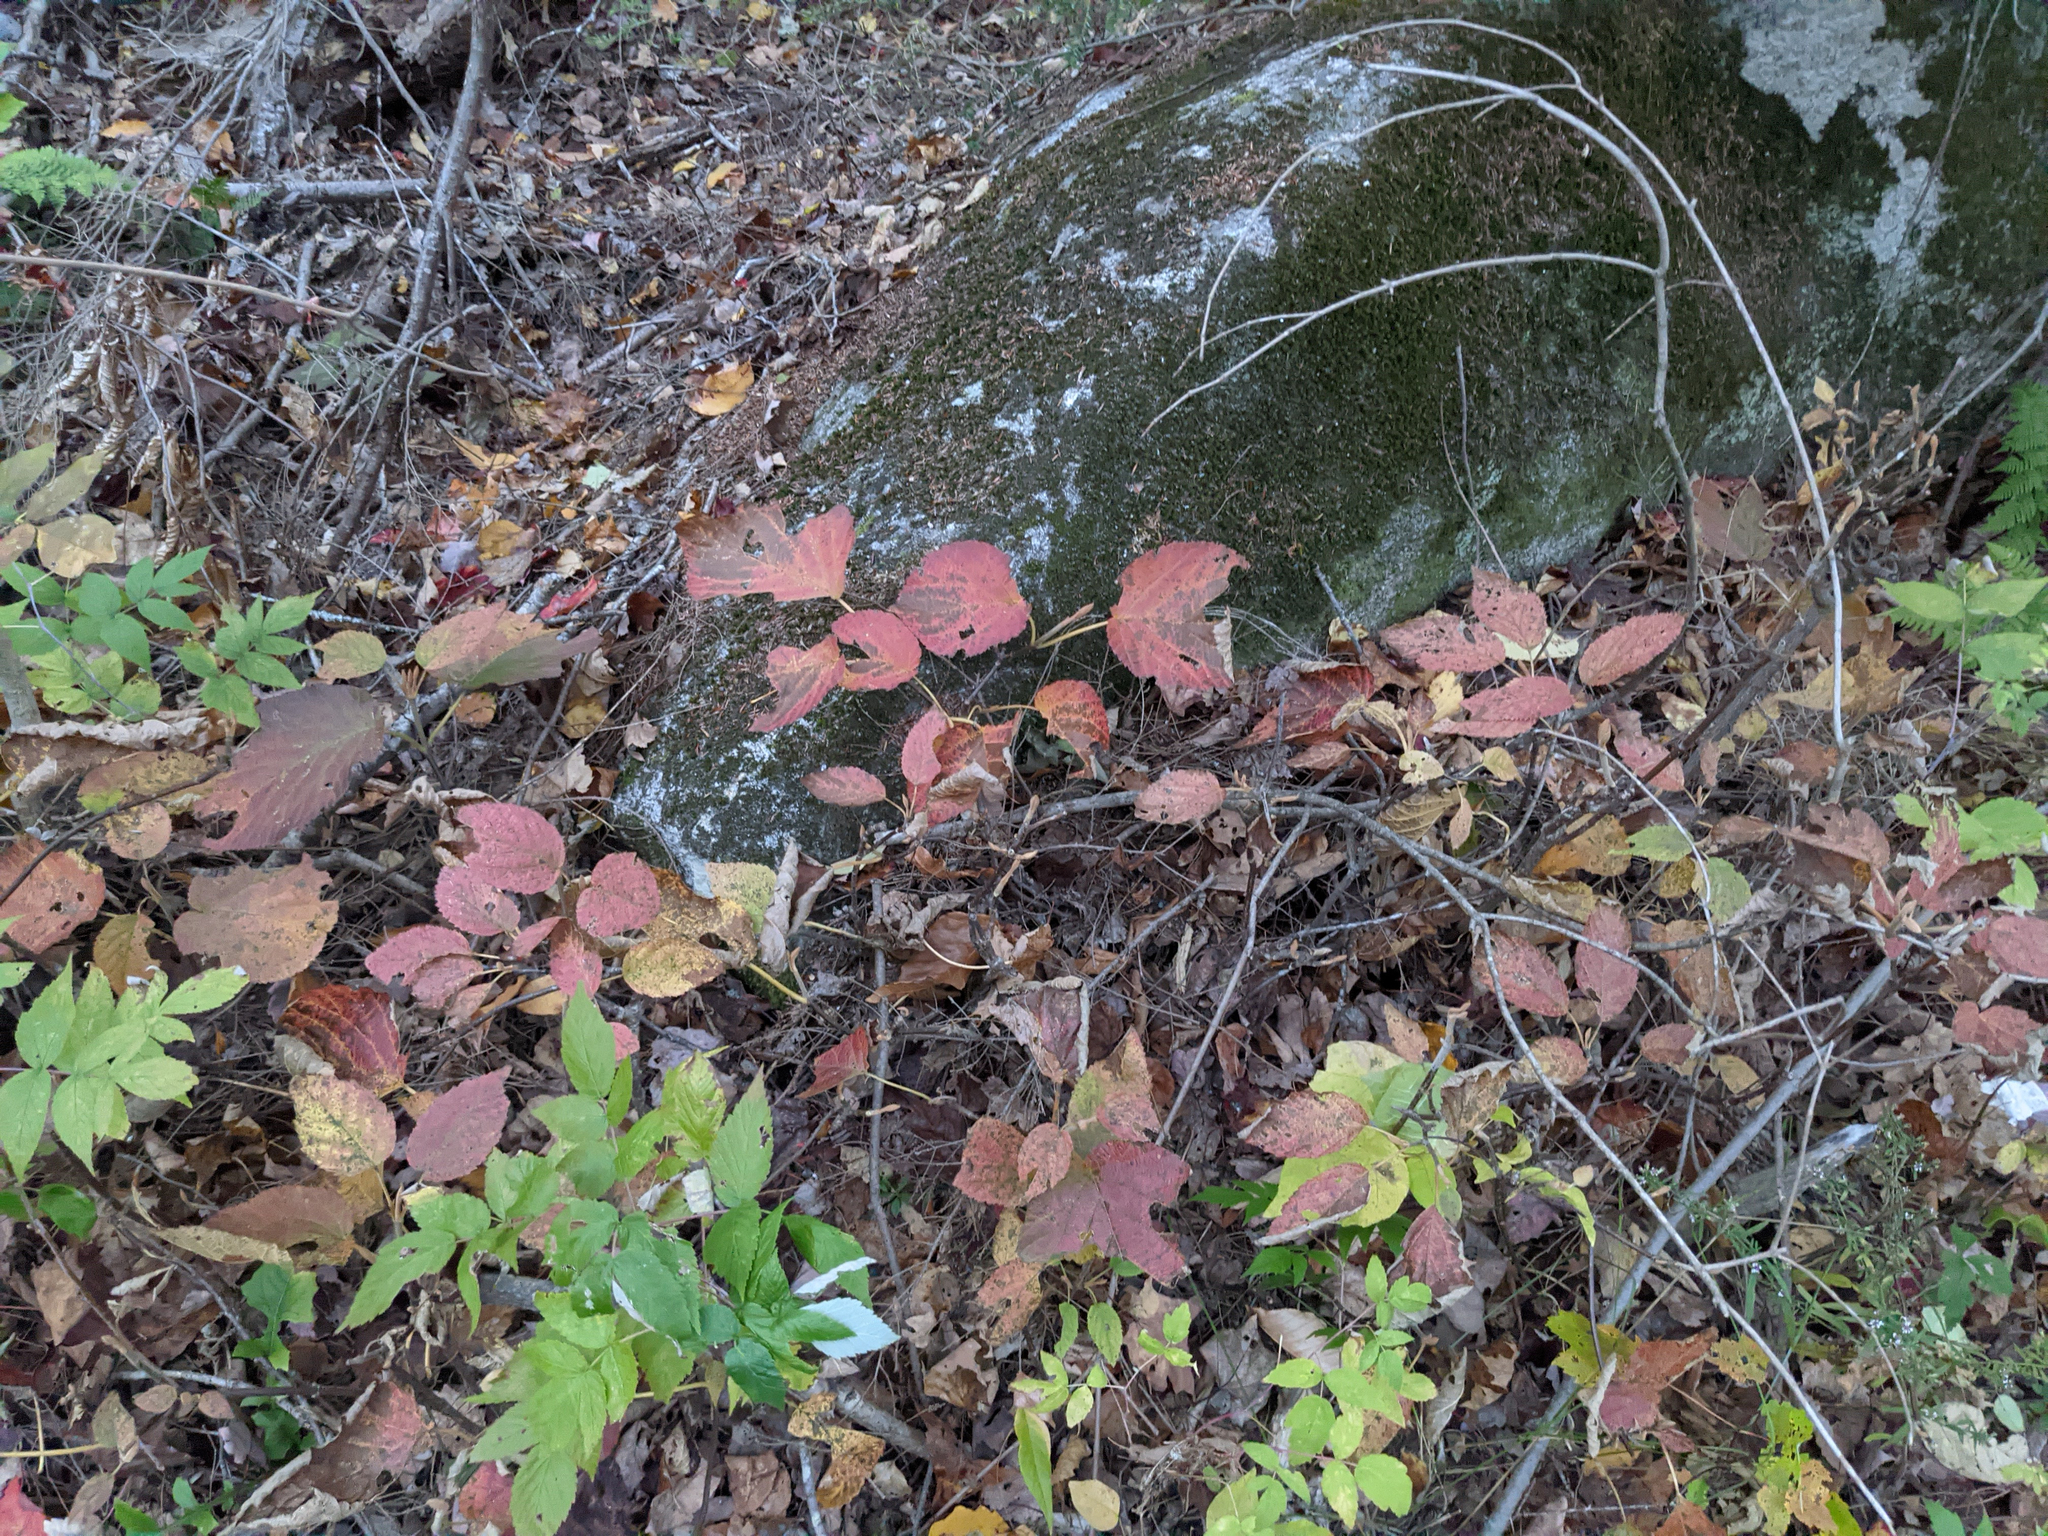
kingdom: Plantae
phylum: Tracheophyta
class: Magnoliopsida
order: Dipsacales
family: Viburnaceae
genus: Viburnum
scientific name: Viburnum lantanoides
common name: Hobblebush
